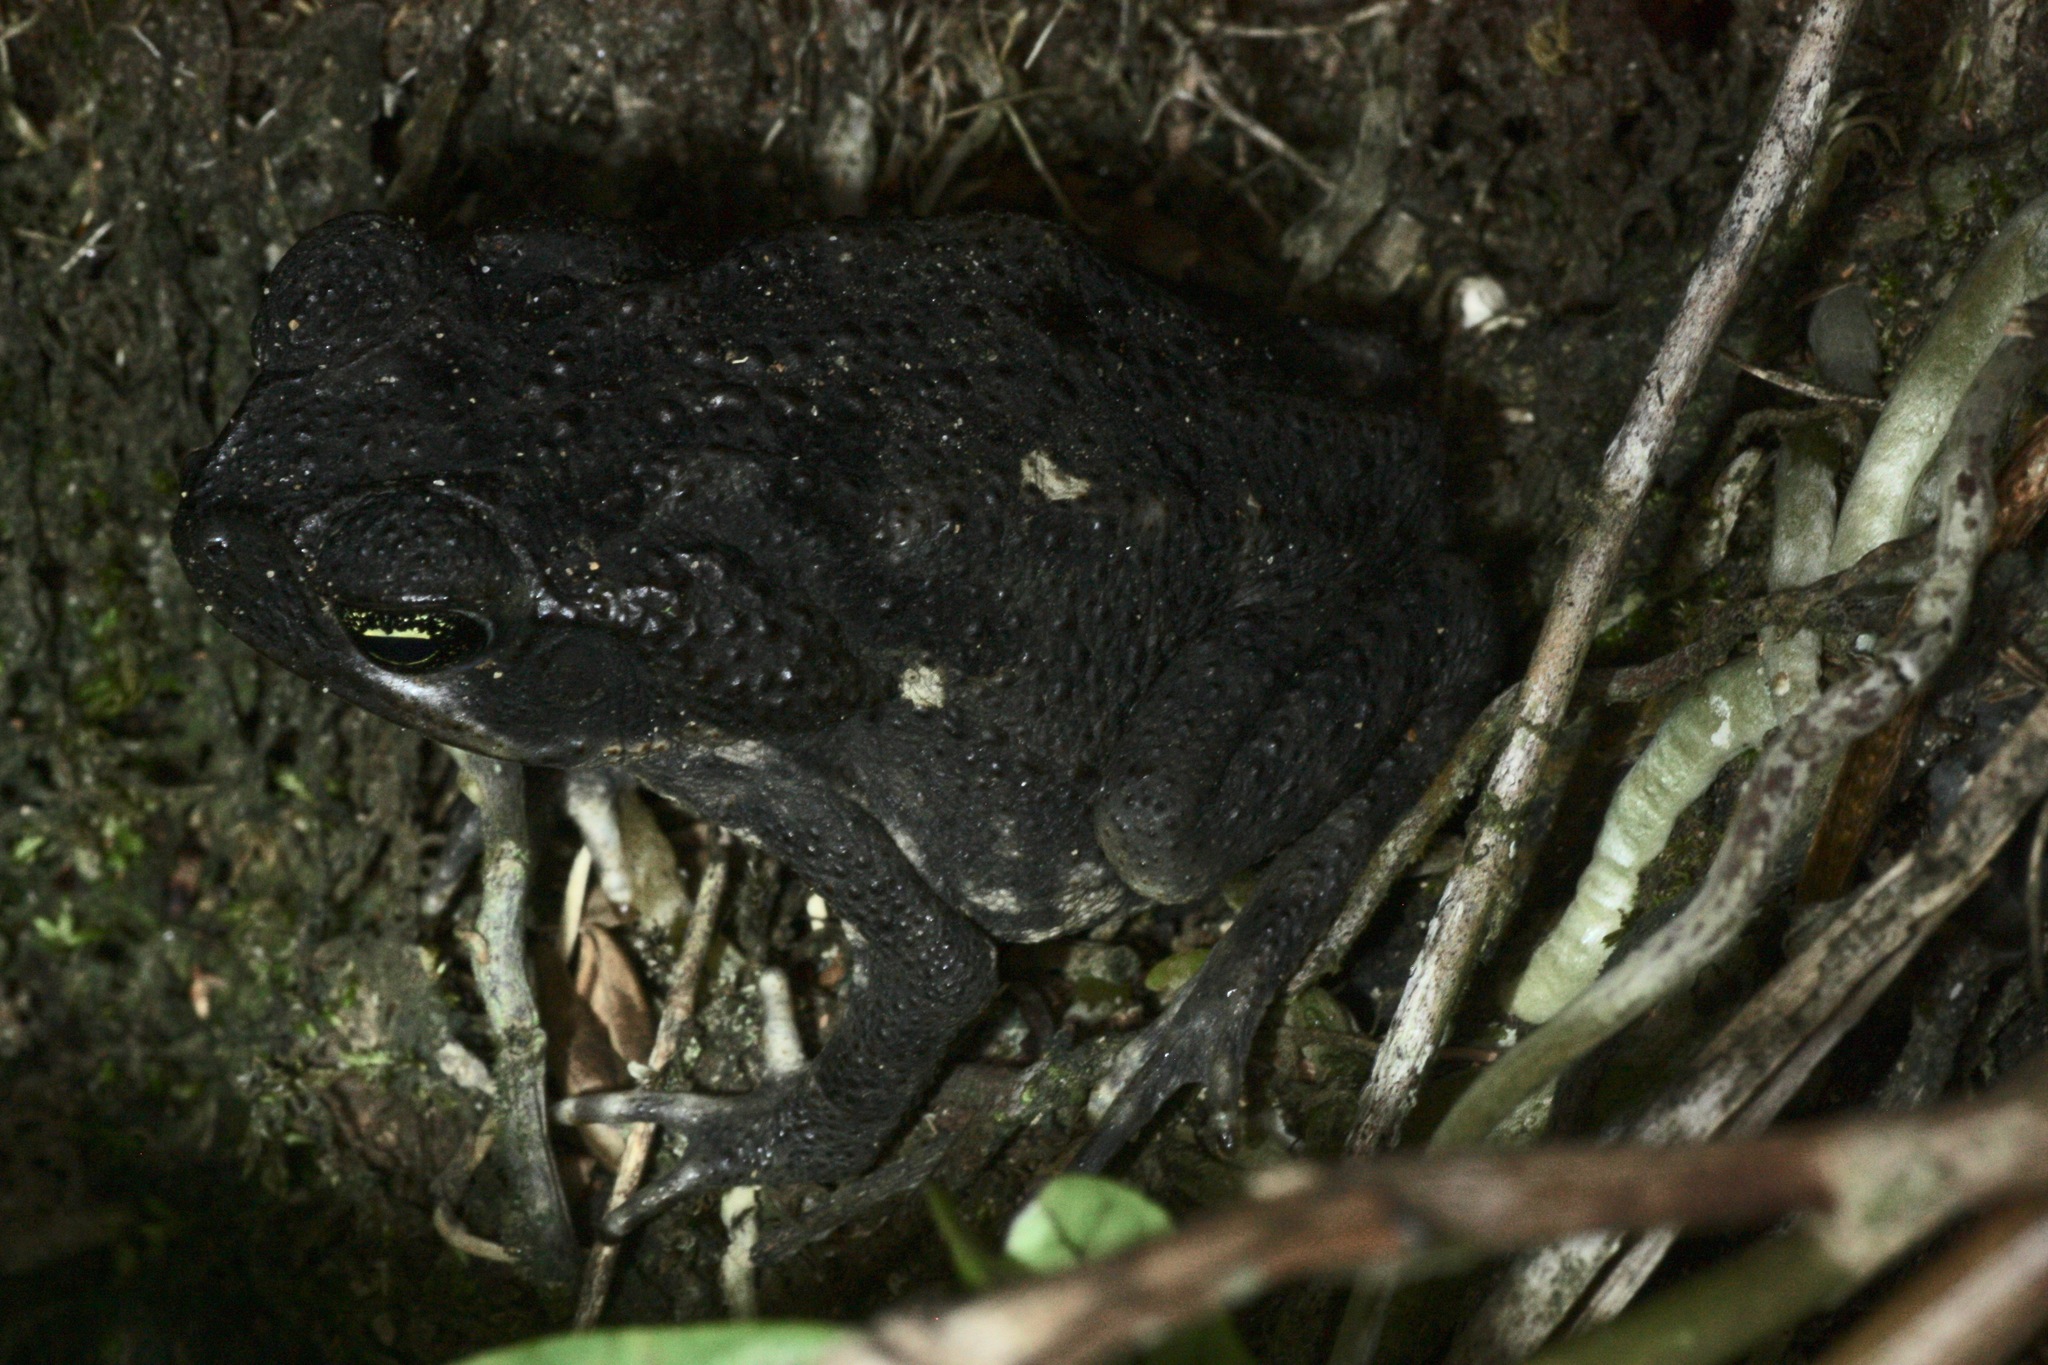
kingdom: Animalia
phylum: Chordata
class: Amphibia
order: Anura
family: Bufonidae
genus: Rhinella
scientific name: Rhinella horribilis
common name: Mesoamerican cane toad
